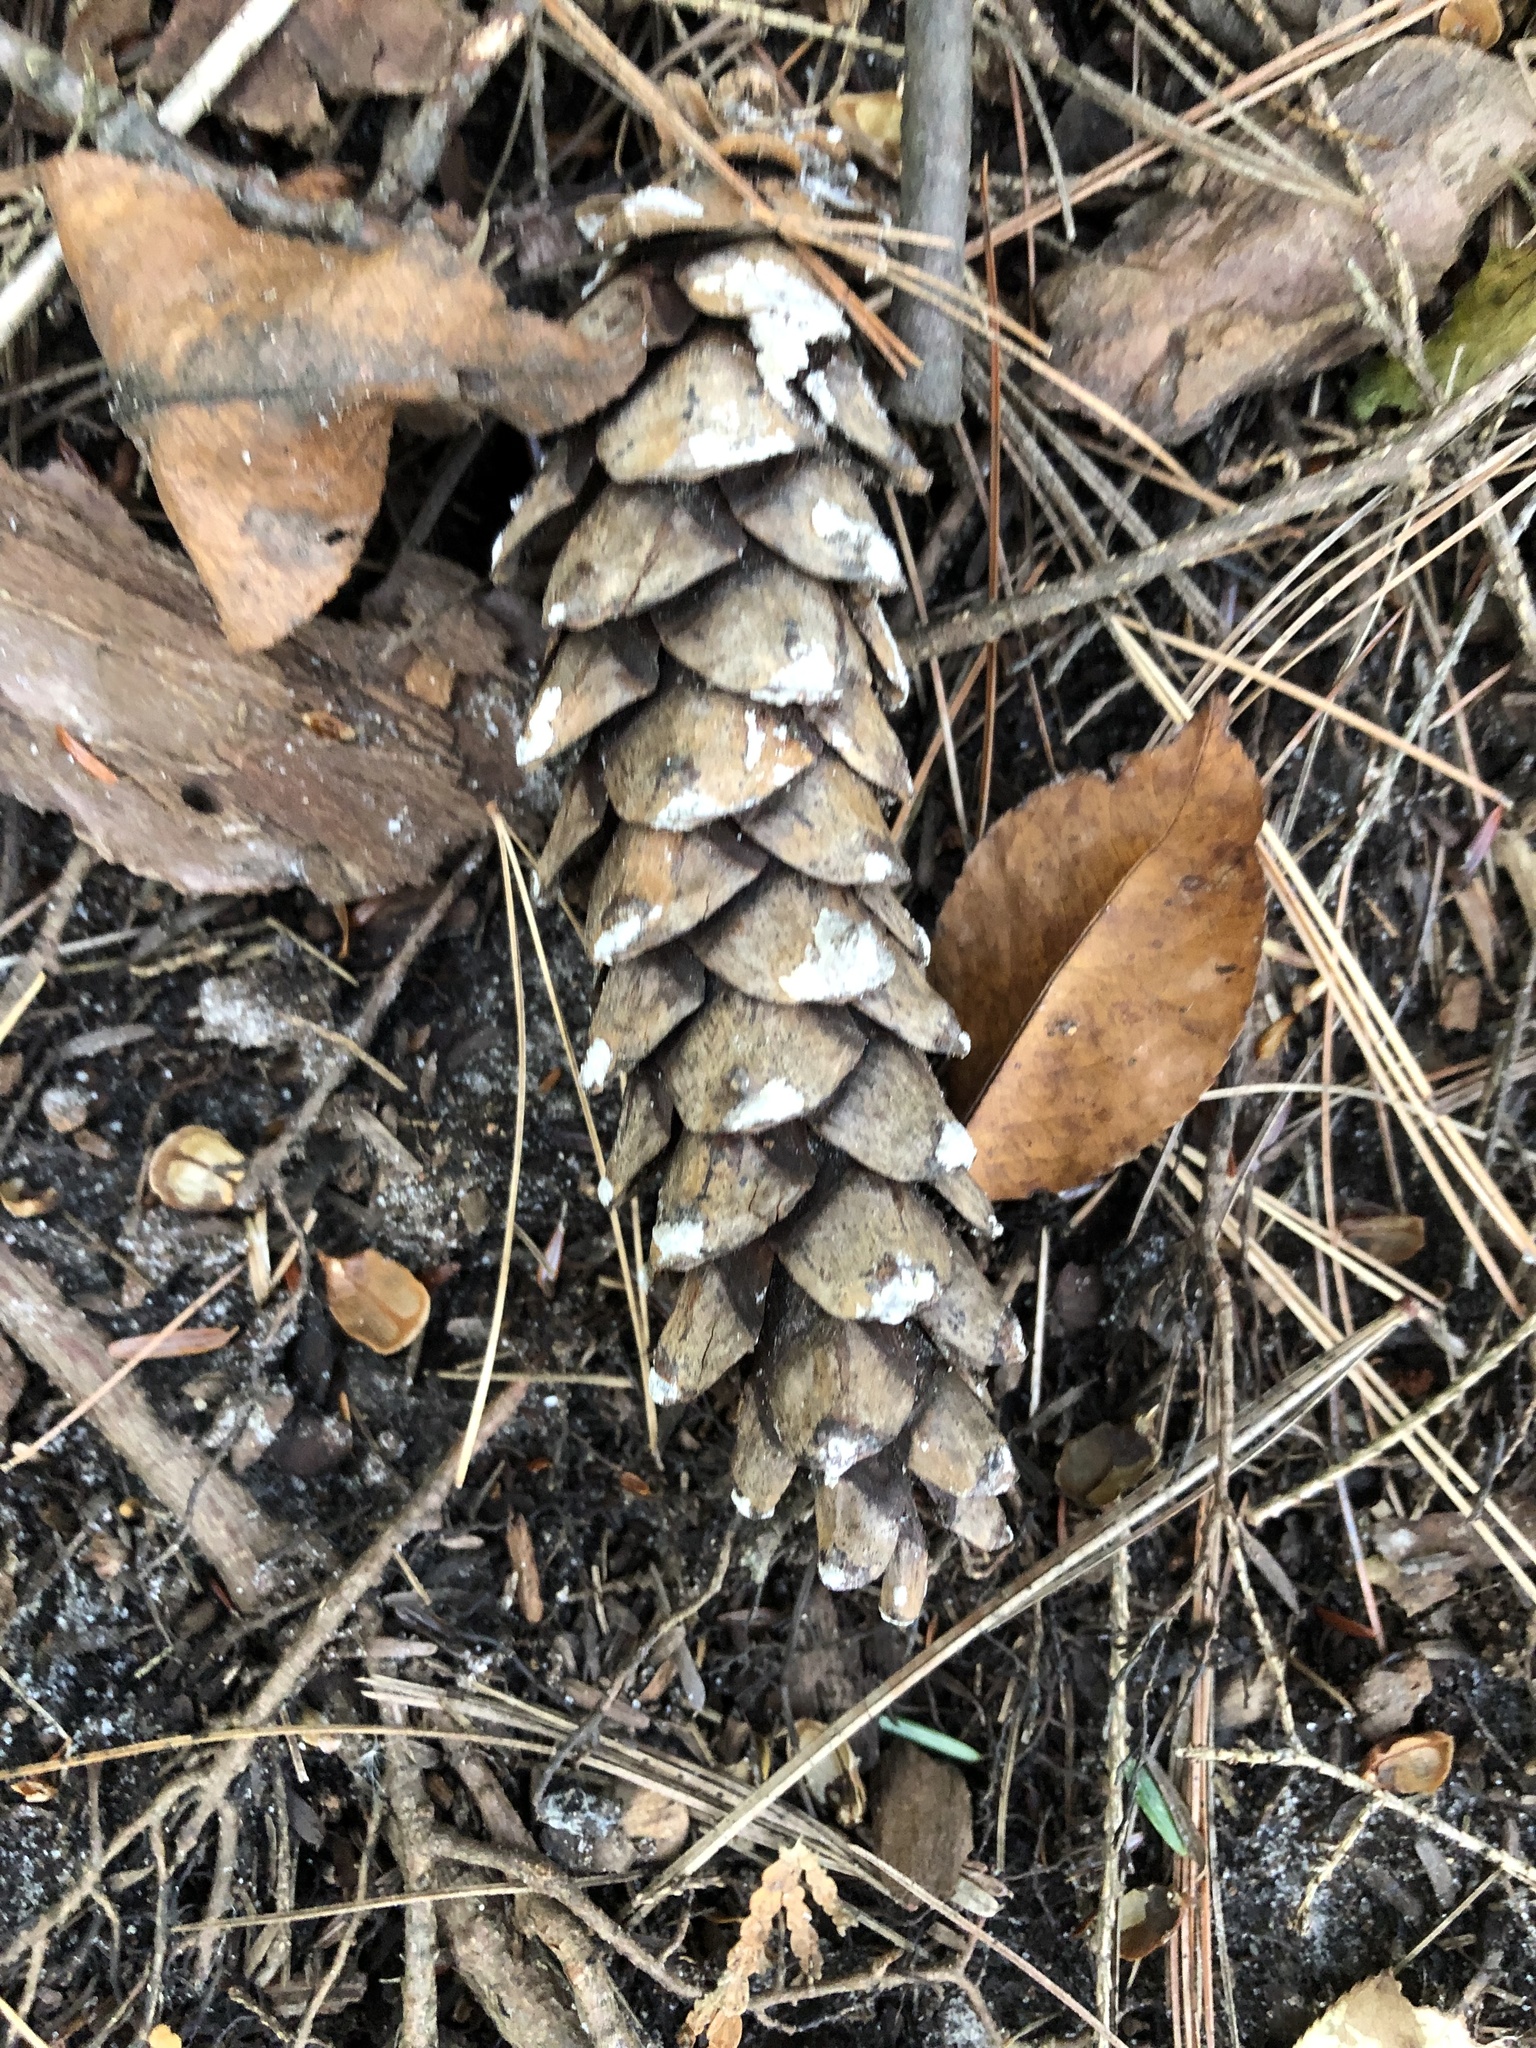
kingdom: Plantae
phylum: Tracheophyta
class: Pinopsida
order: Pinales
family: Pinaceae
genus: Pinus
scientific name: Pinus strobus
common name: Weymouth pine
